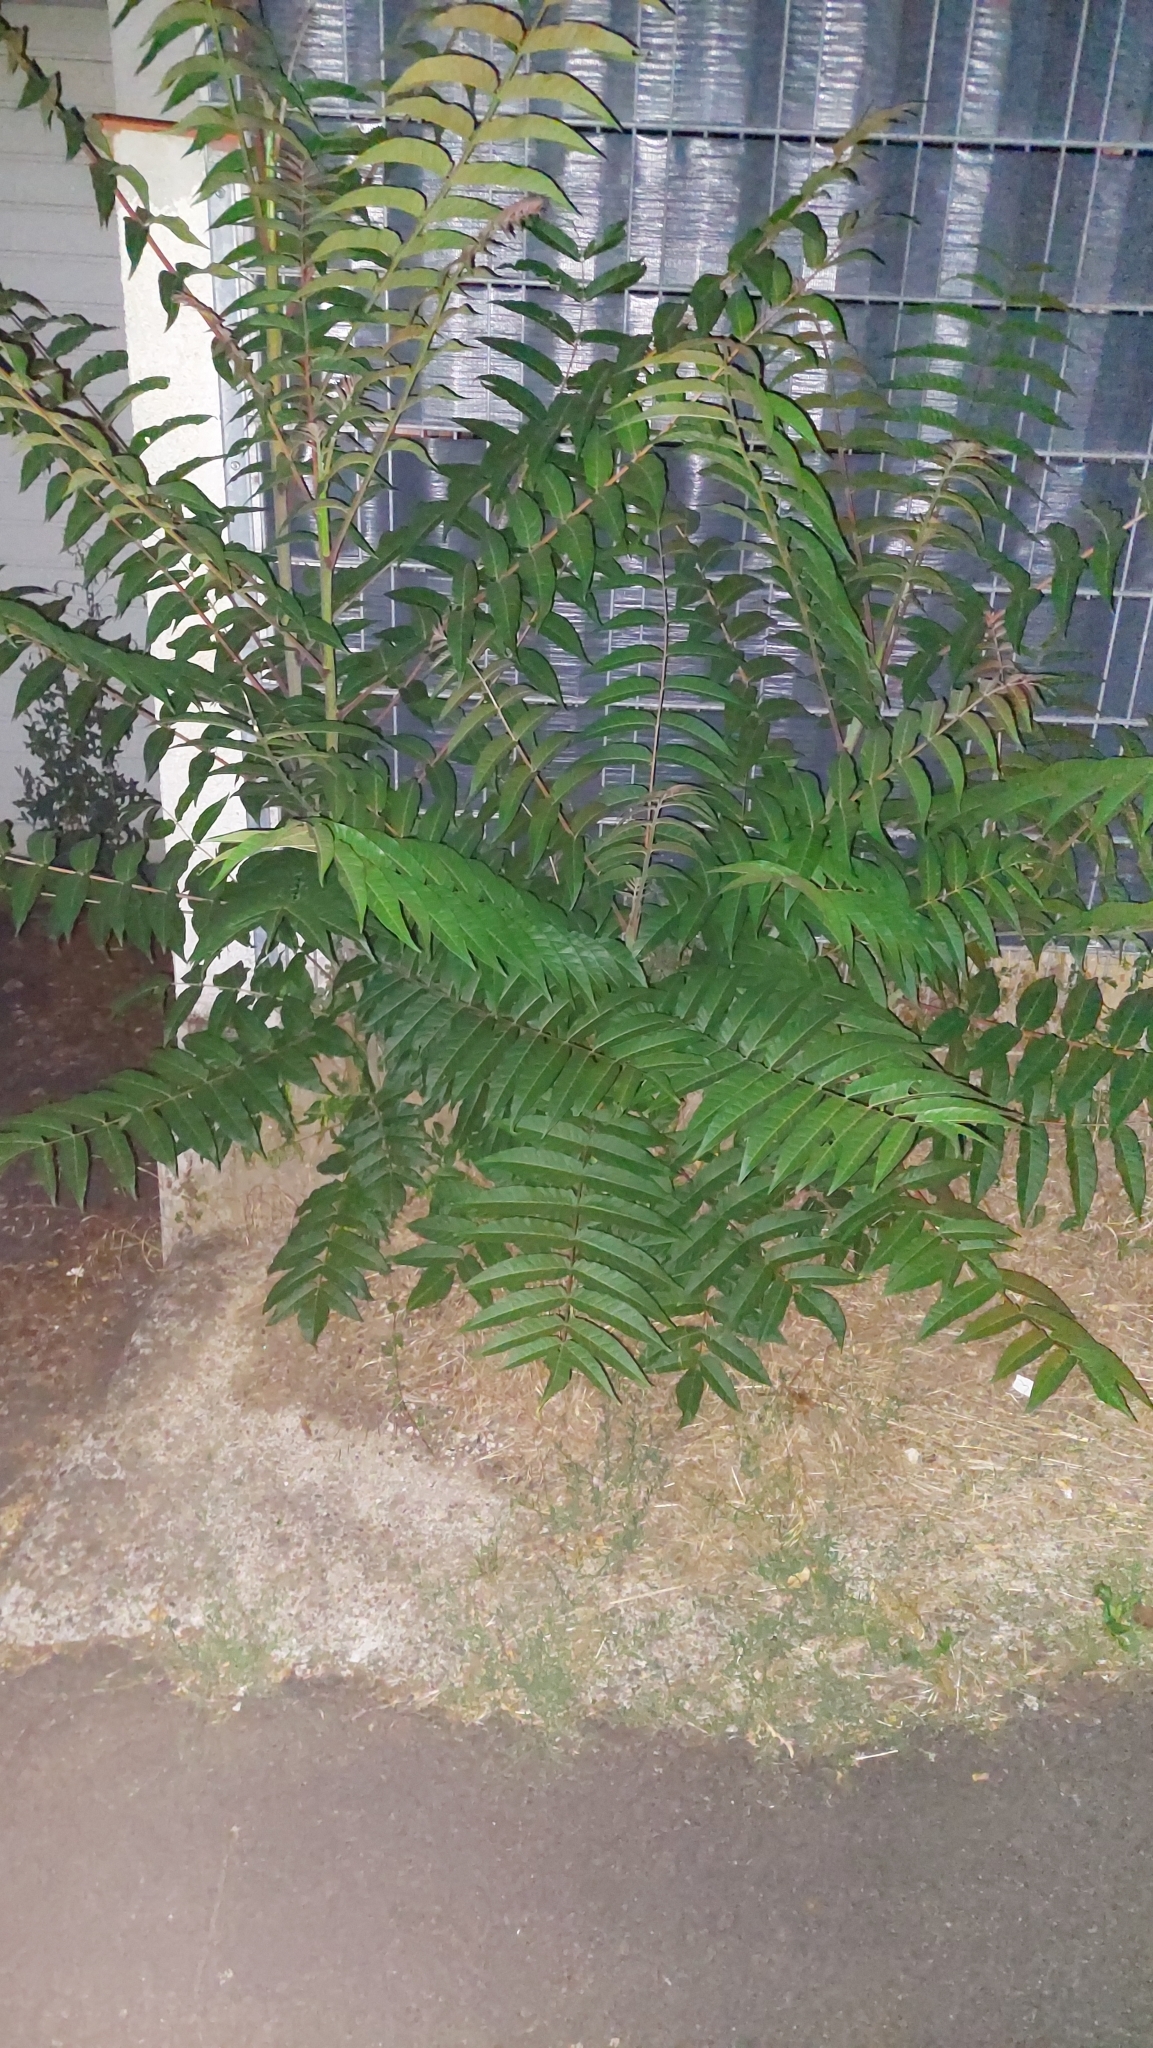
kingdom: Plantae
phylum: Tracheophyta
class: Magnoliopsida
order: Sapindales
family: Simaroubaceae
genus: Ailanthus
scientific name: Ailanthus altissima
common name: Tree-of-heaven
